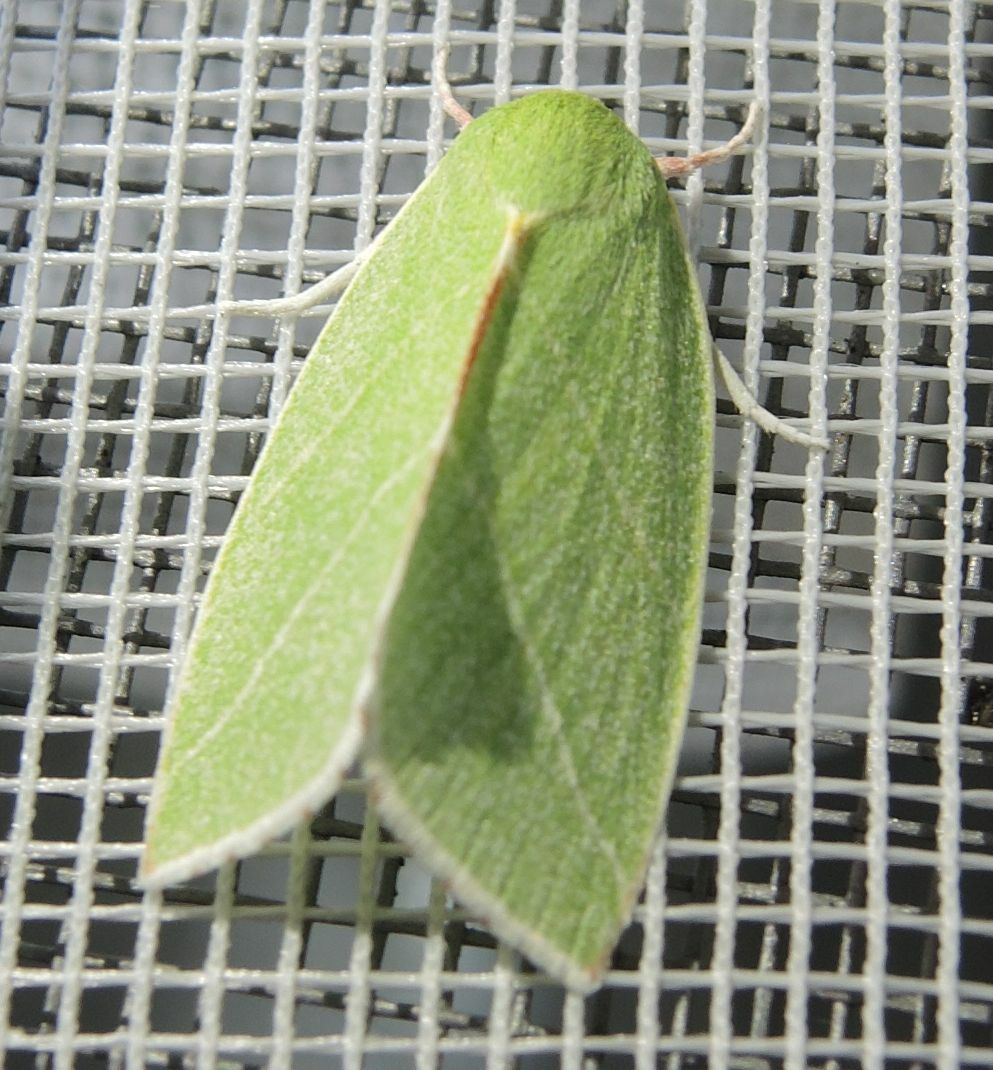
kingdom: Animalia
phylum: Arthropoda
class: Insecta
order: Lepidoptera
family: Nolidae
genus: Bena
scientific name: Bena bicolorana
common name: Scarce silver-lines
